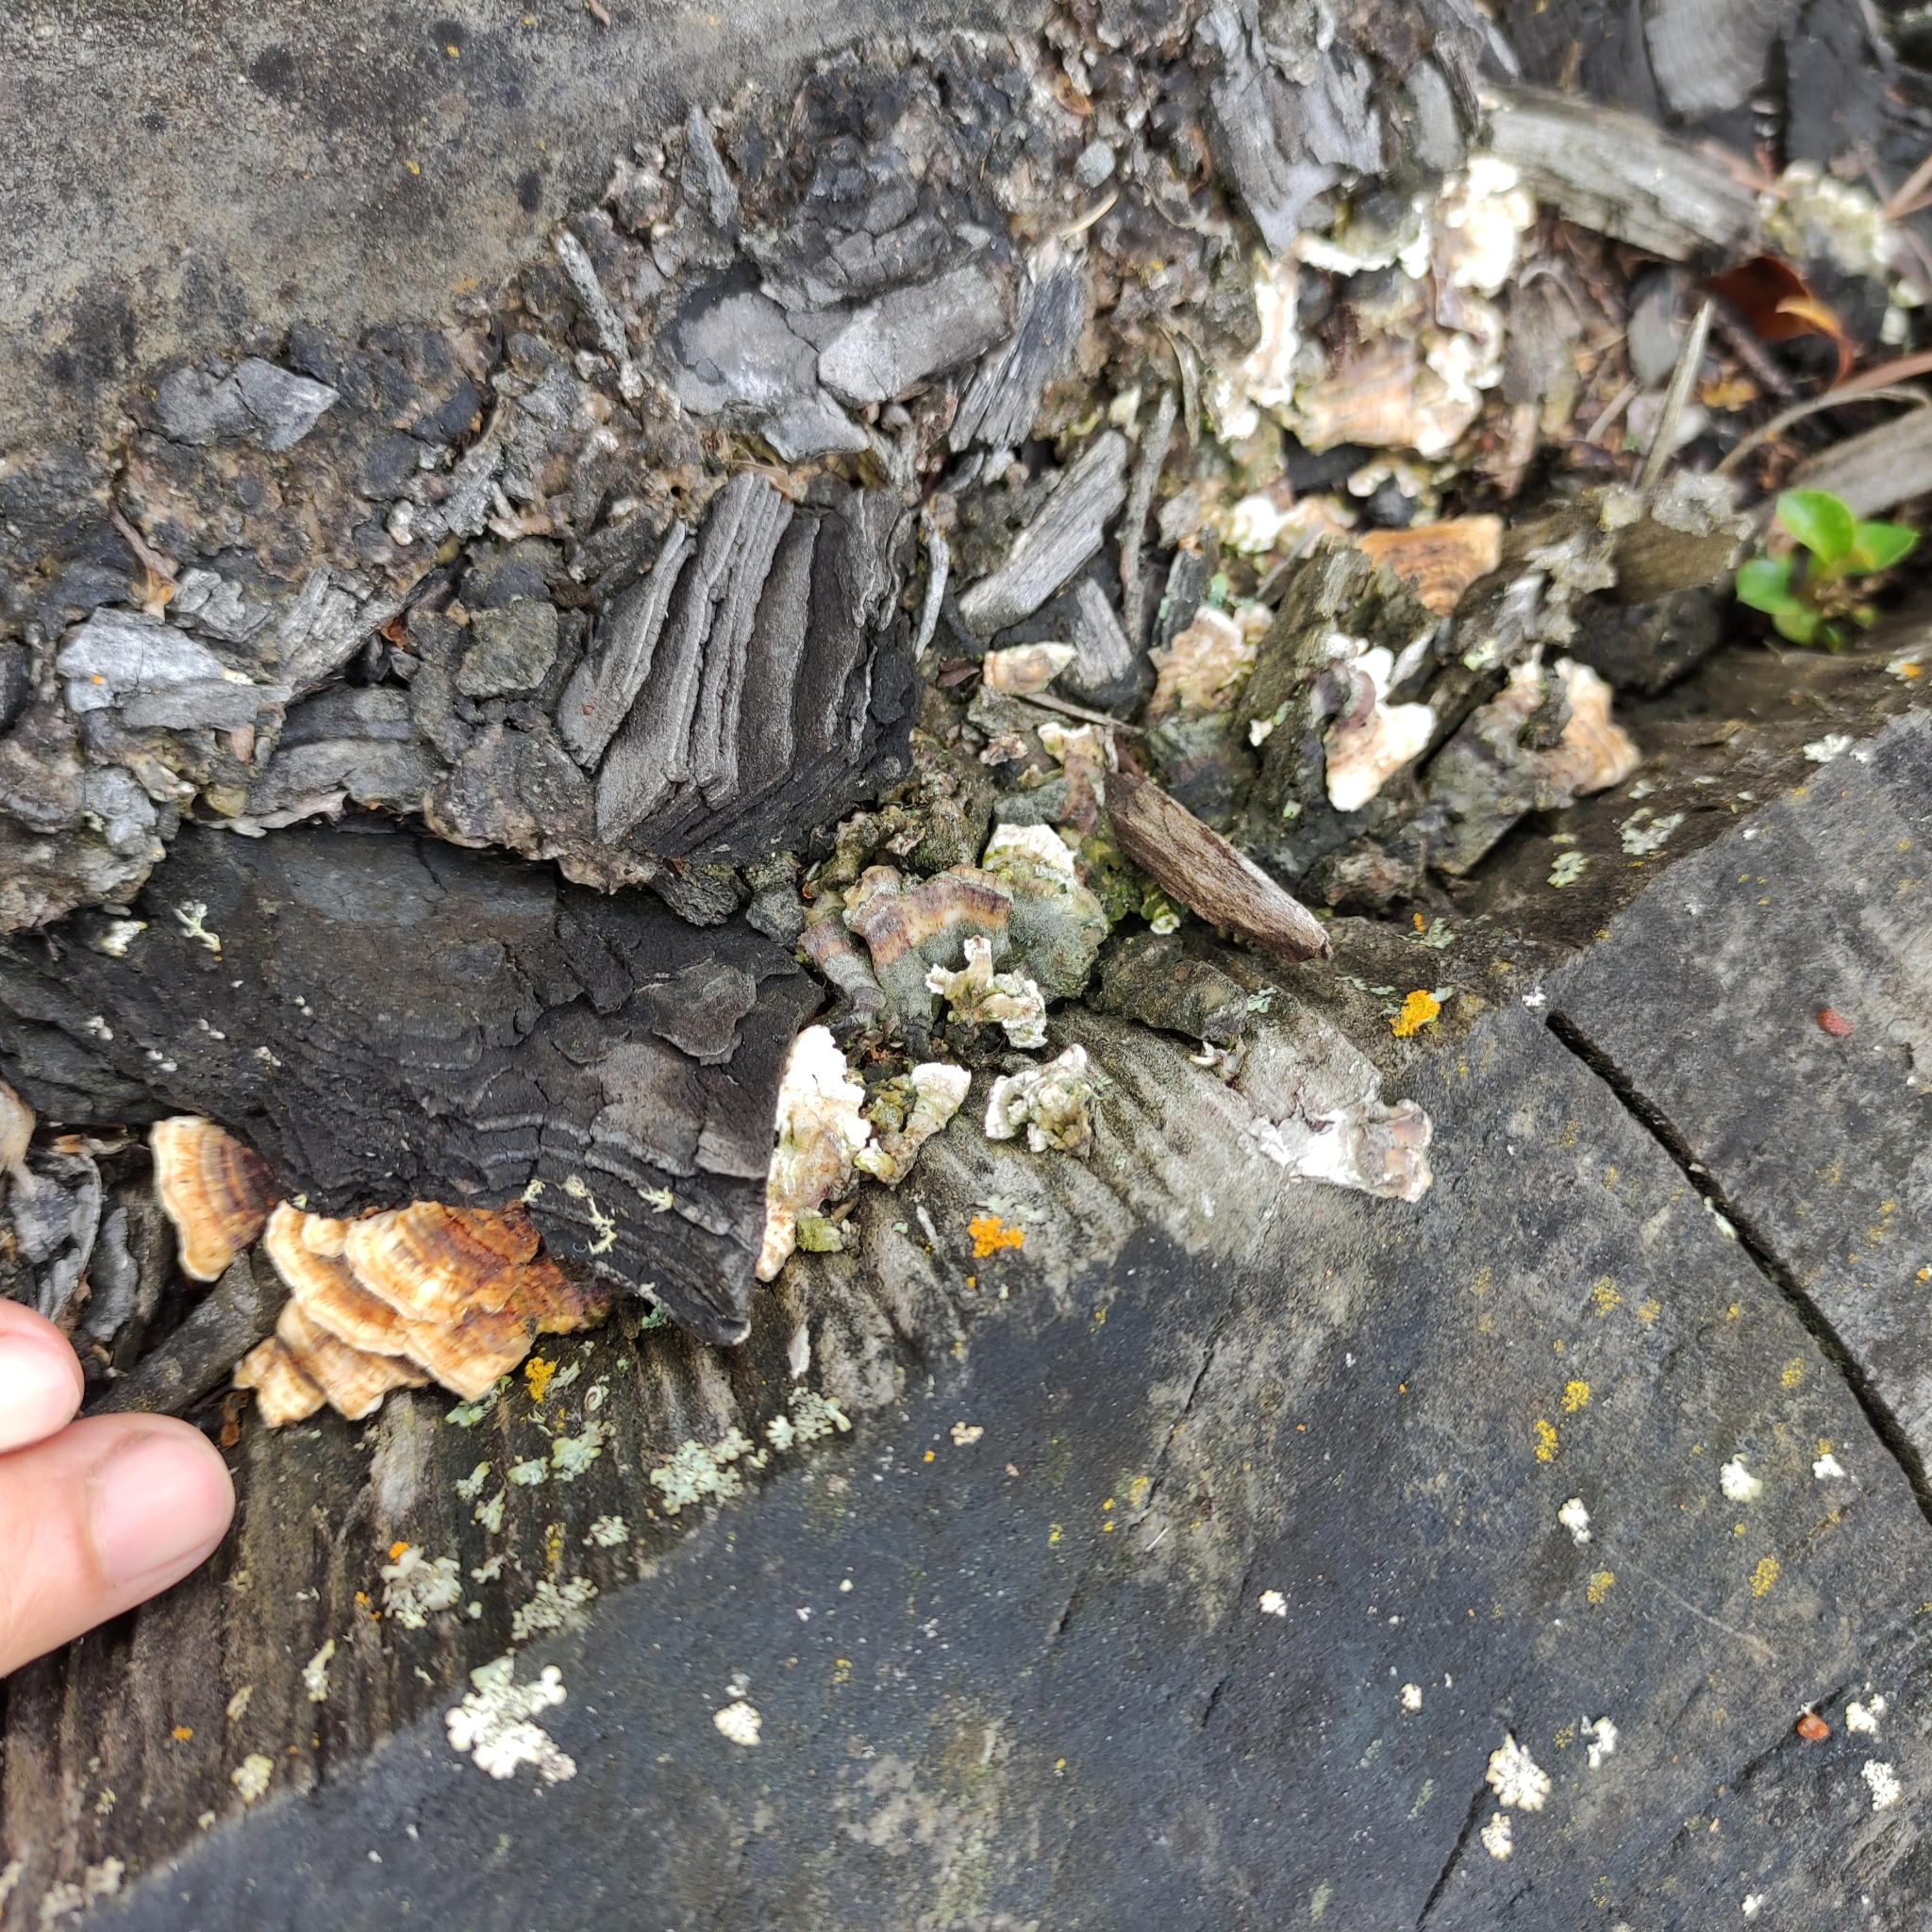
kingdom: Fungi
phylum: Basidiomycota
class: Agaricomycetes
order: Polyporales
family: Fomitopsidaceae
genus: Fomitopsis
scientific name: Fomitopsis
